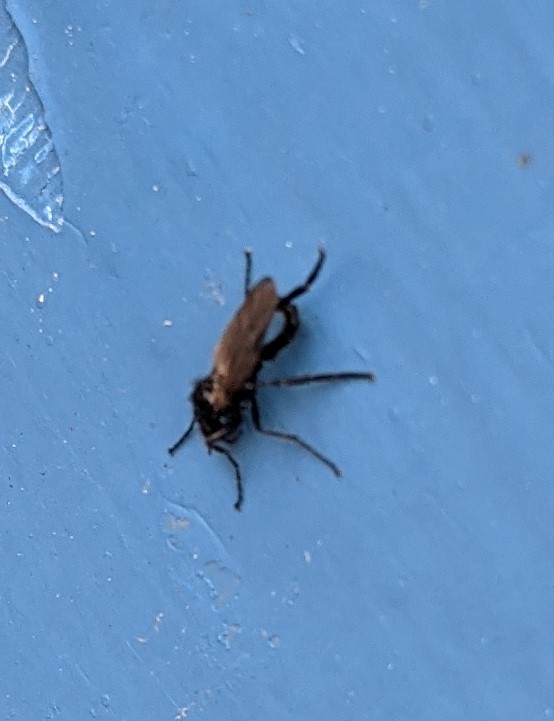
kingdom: Animalia
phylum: Arthropoda
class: Insecta
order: Diptera
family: Bibionidae
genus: Bibio
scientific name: Bibio slossonae
